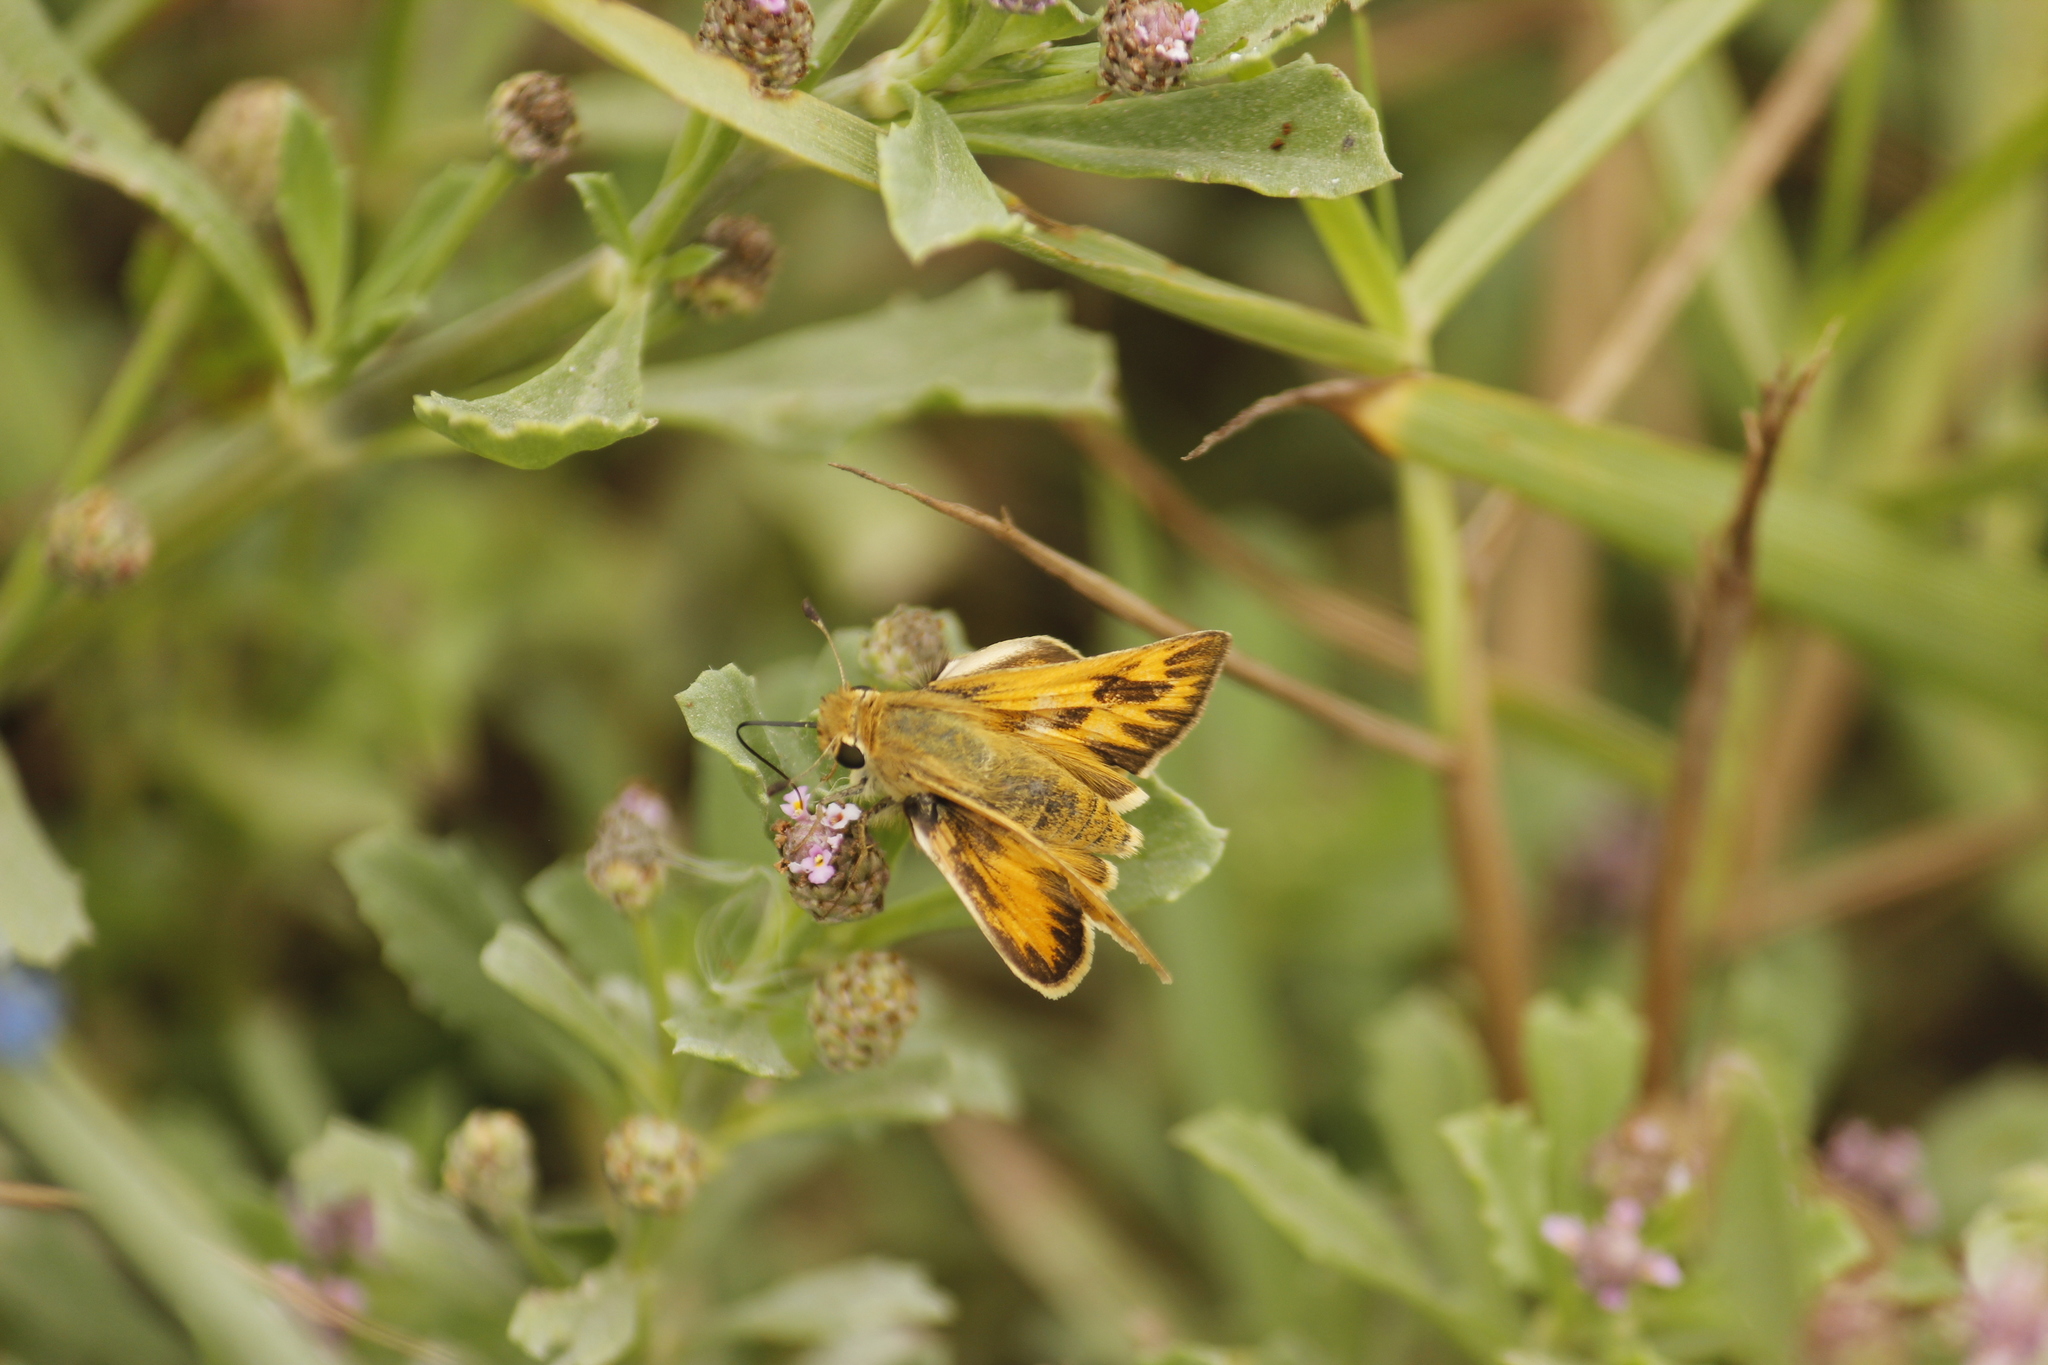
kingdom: Animalia
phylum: Arthropoda
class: Insecta
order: Lepidoptera
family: Hesperiidae
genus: Hylephila
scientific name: Hylephila phyleus
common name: Fiery skipper
